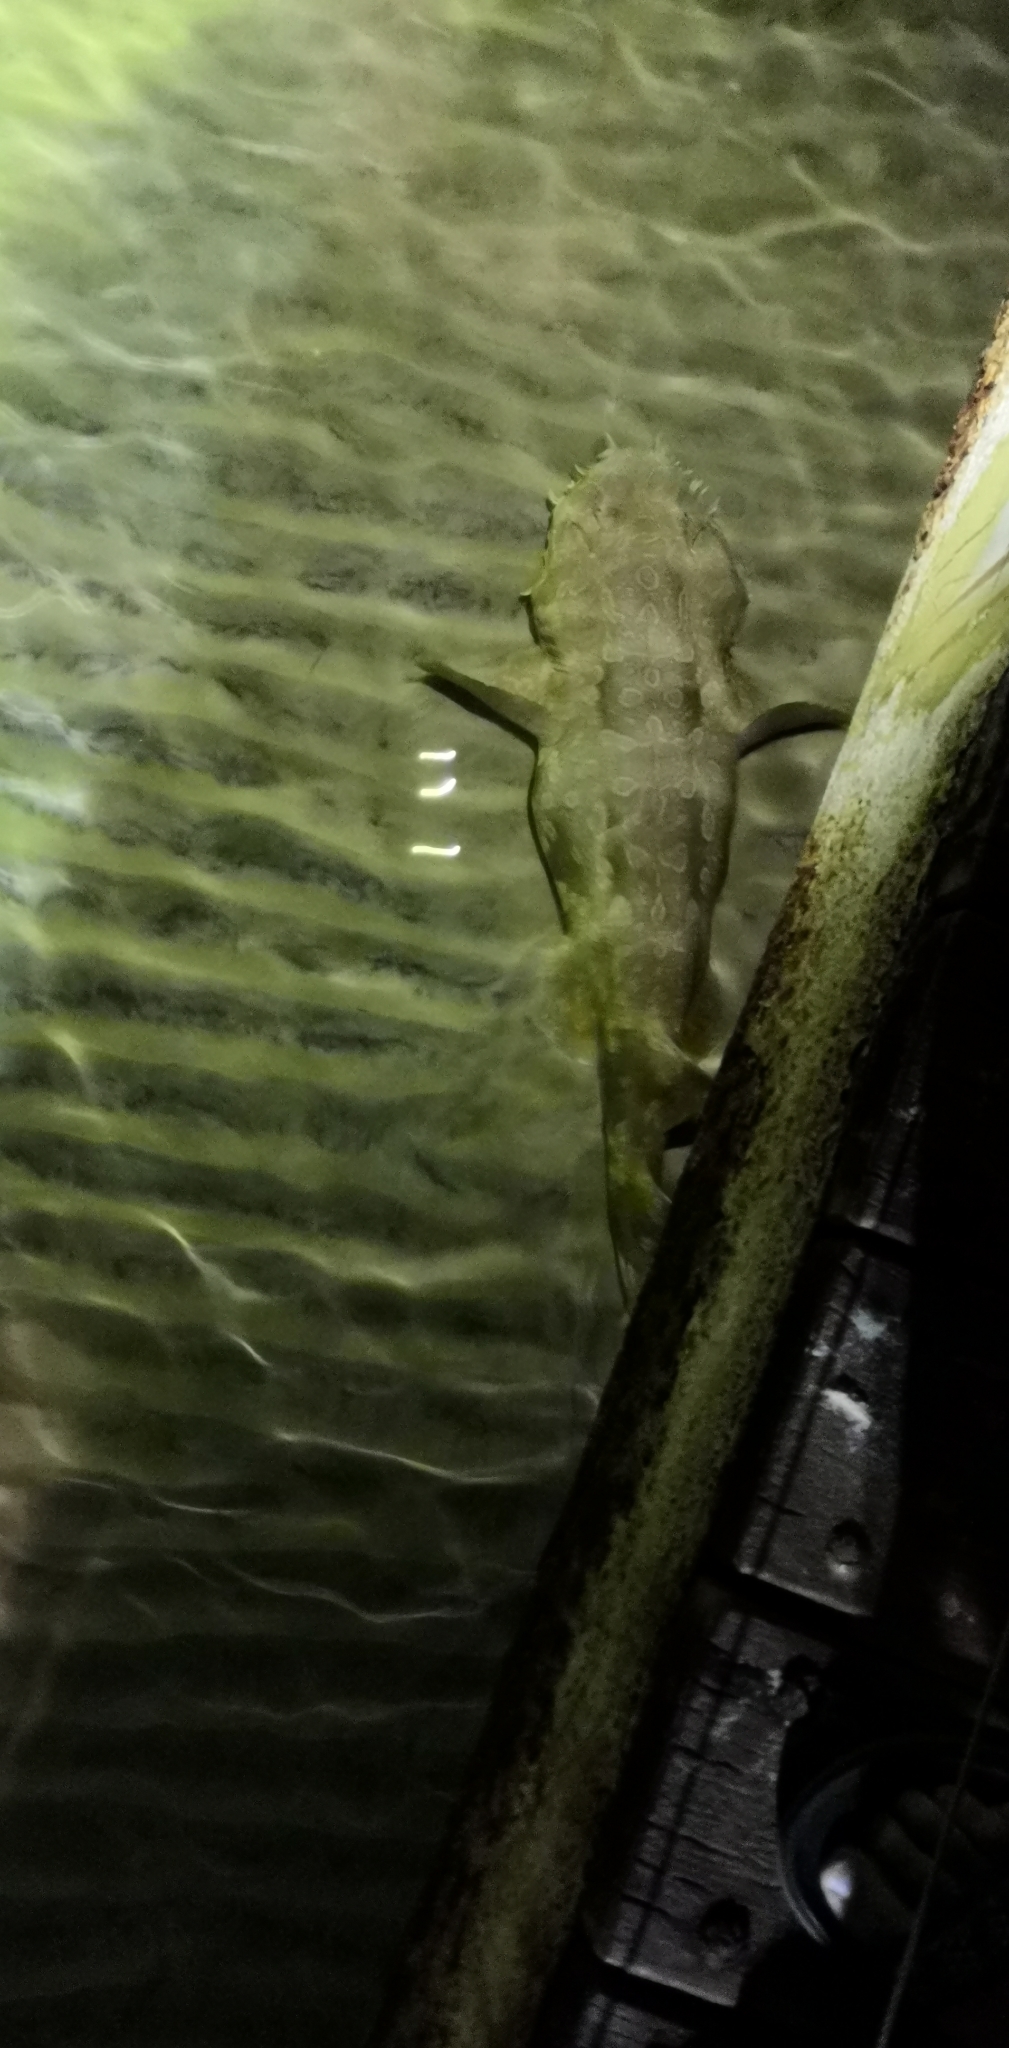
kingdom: Animalia
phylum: Chordata
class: Elasmobranchii
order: Orectolobiformes
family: Orectolobidae
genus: Orectolobus
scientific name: Orectolobus maculatus
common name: Spotted wobbegong
